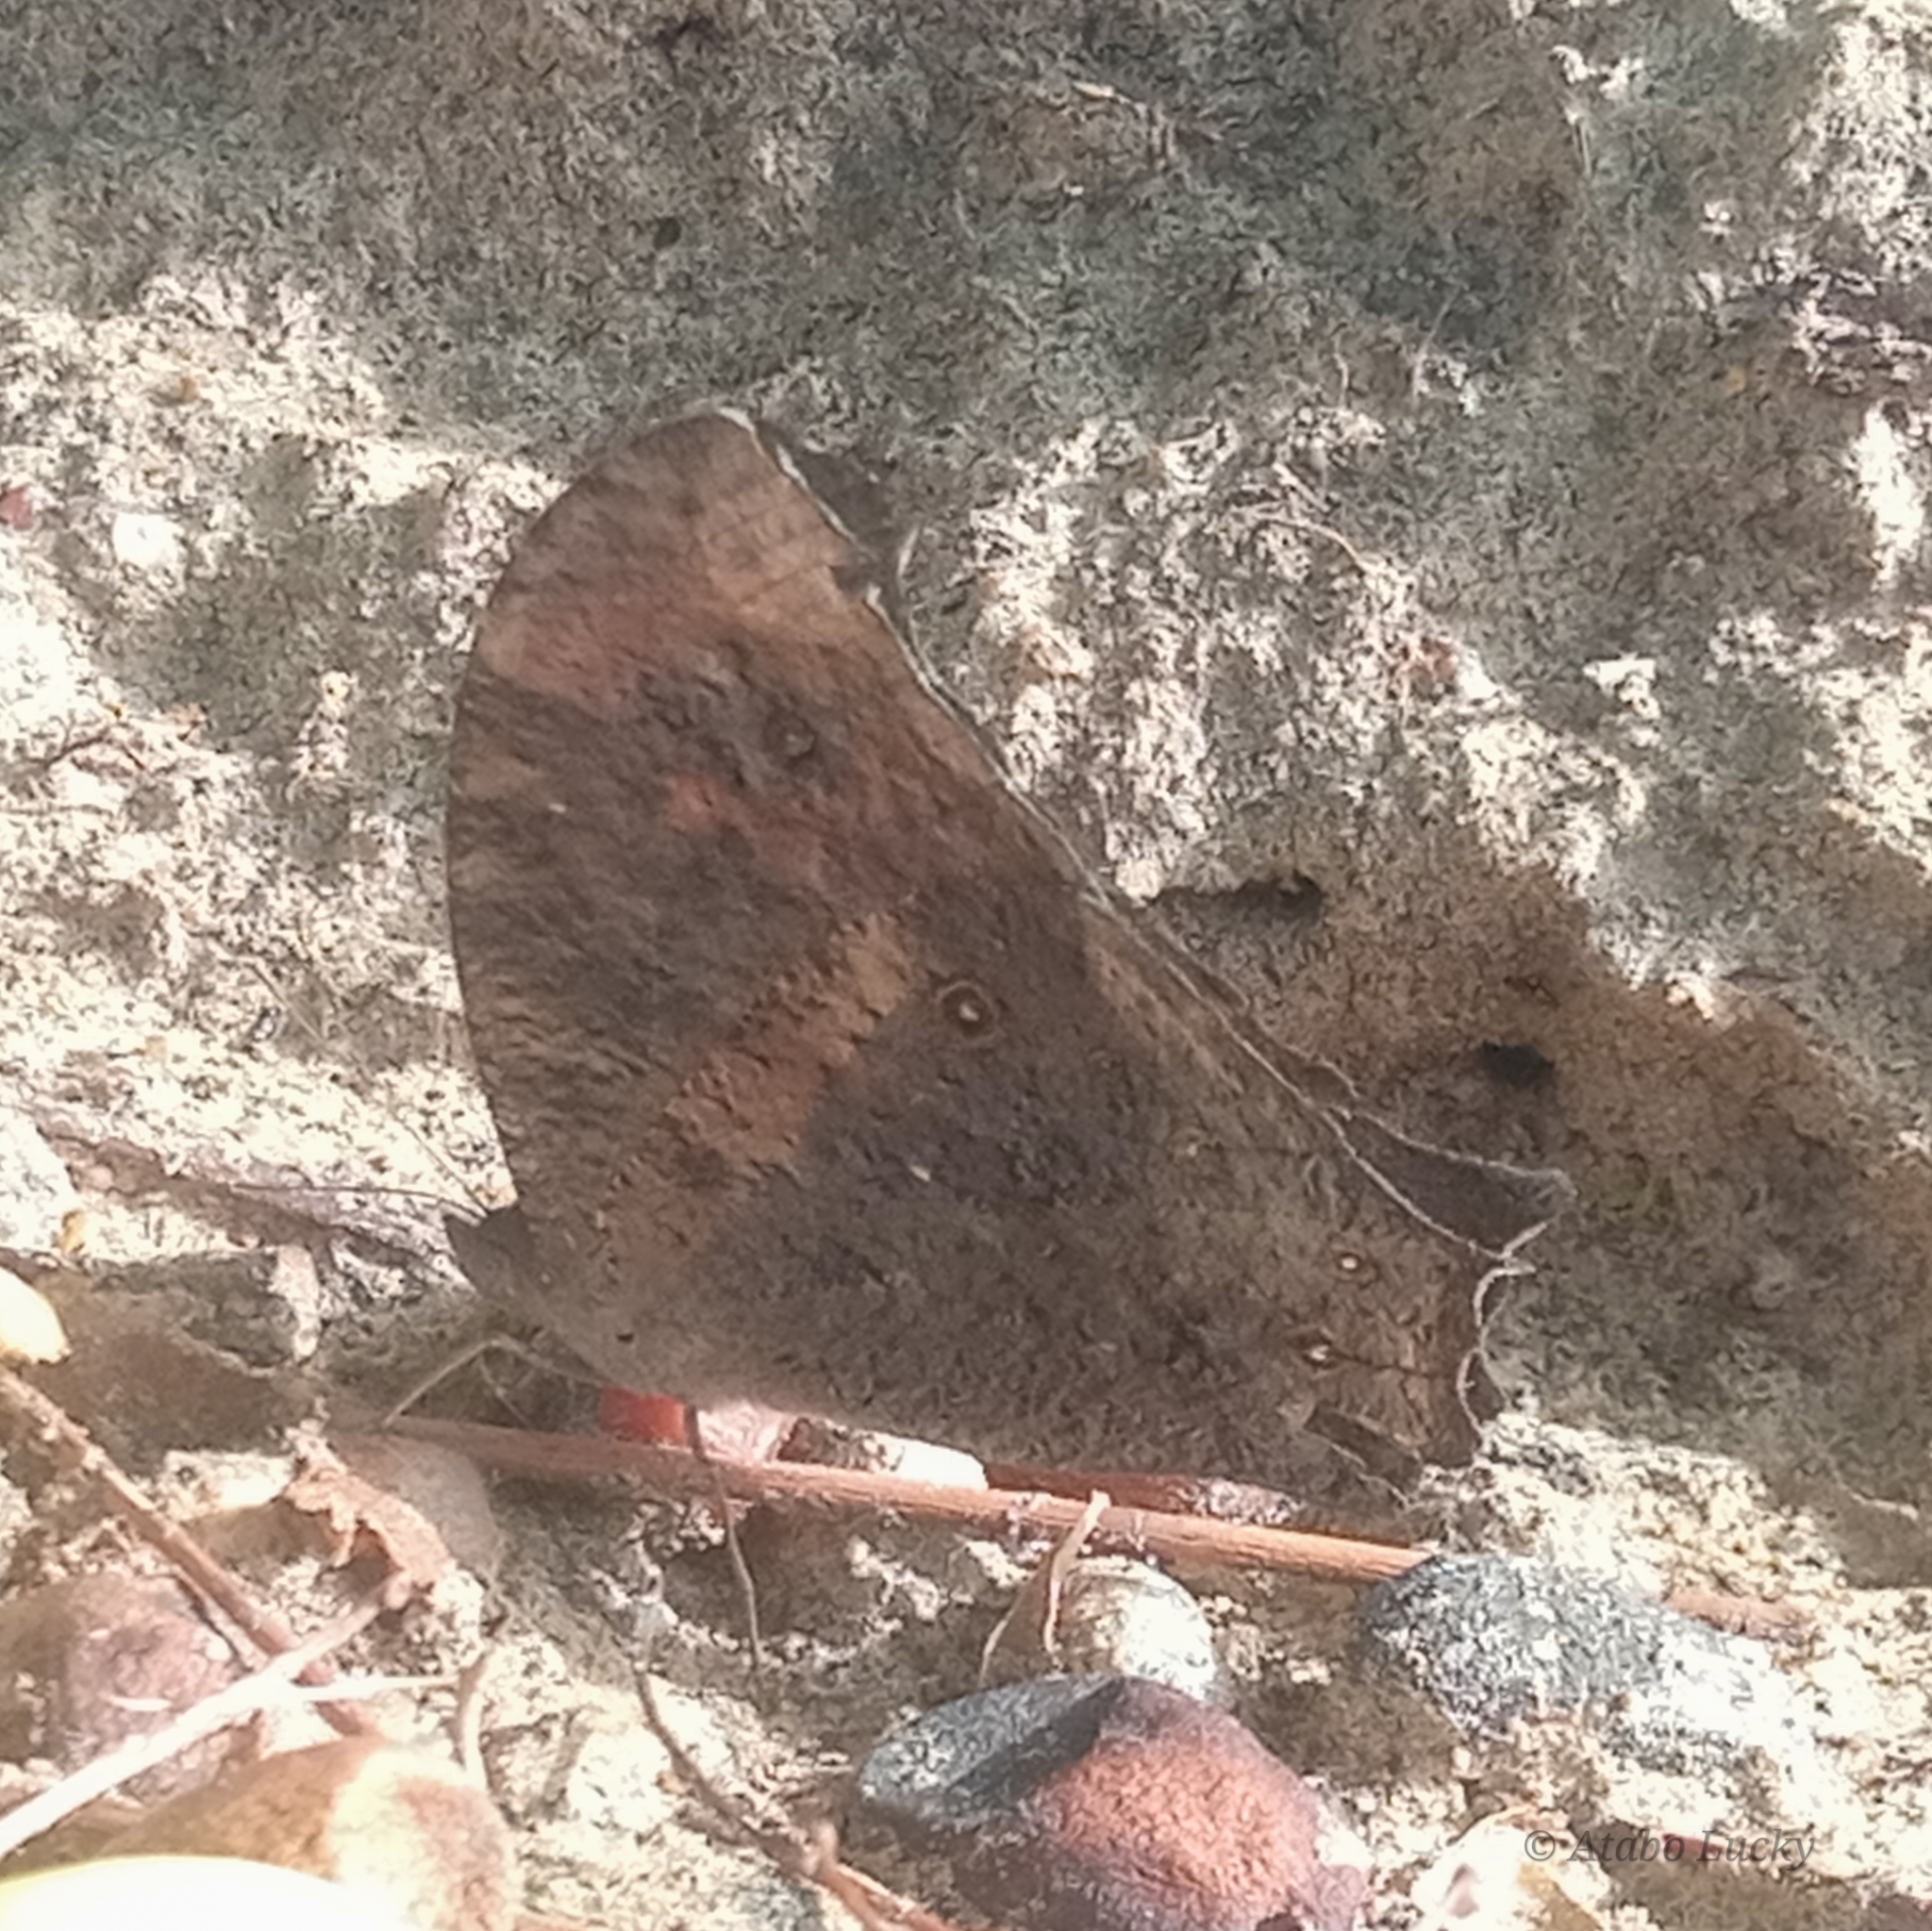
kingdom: Animalia
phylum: Arthropoda
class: Insecta
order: Lepidoptera
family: Nymphalidae
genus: Melanitis
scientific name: Melanitis leda
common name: Twilight brown
